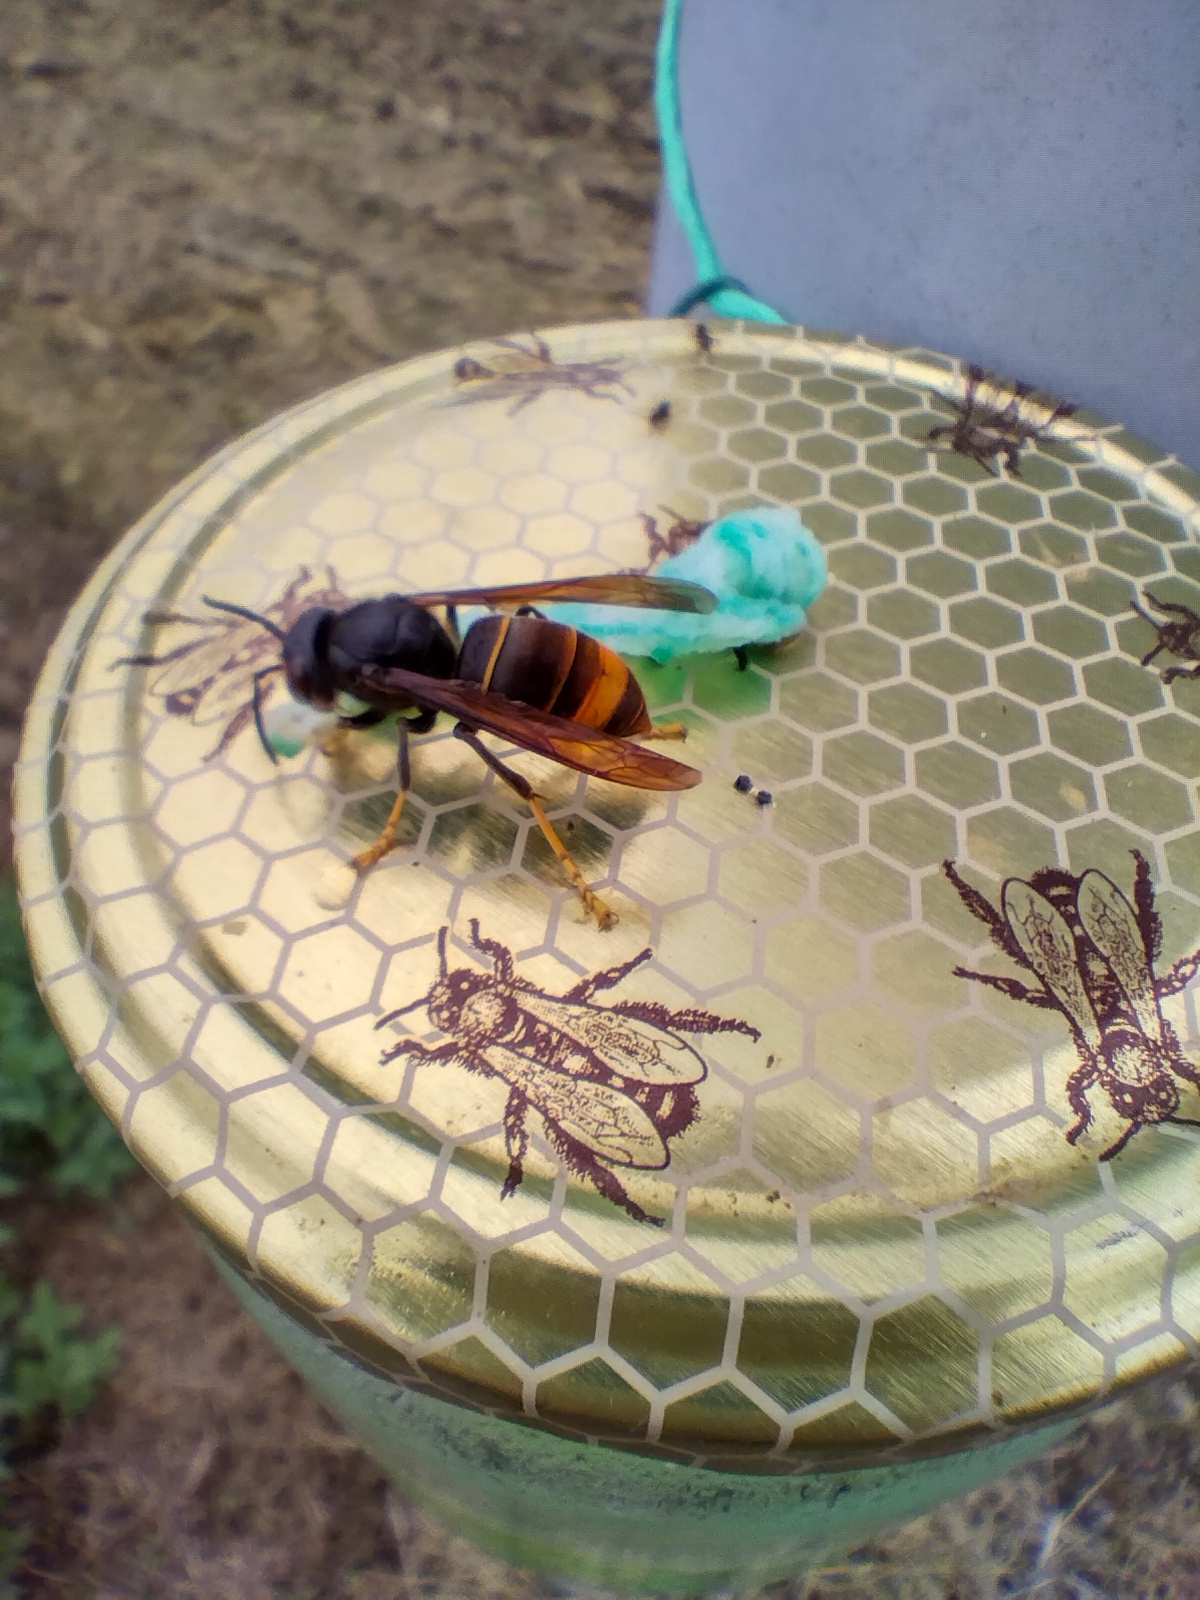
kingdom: Animalia
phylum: Arthropoda
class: Insecta
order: Hymenoptera
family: Vespidae
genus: Vespa
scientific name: Vespa velutina
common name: Asian hornet
